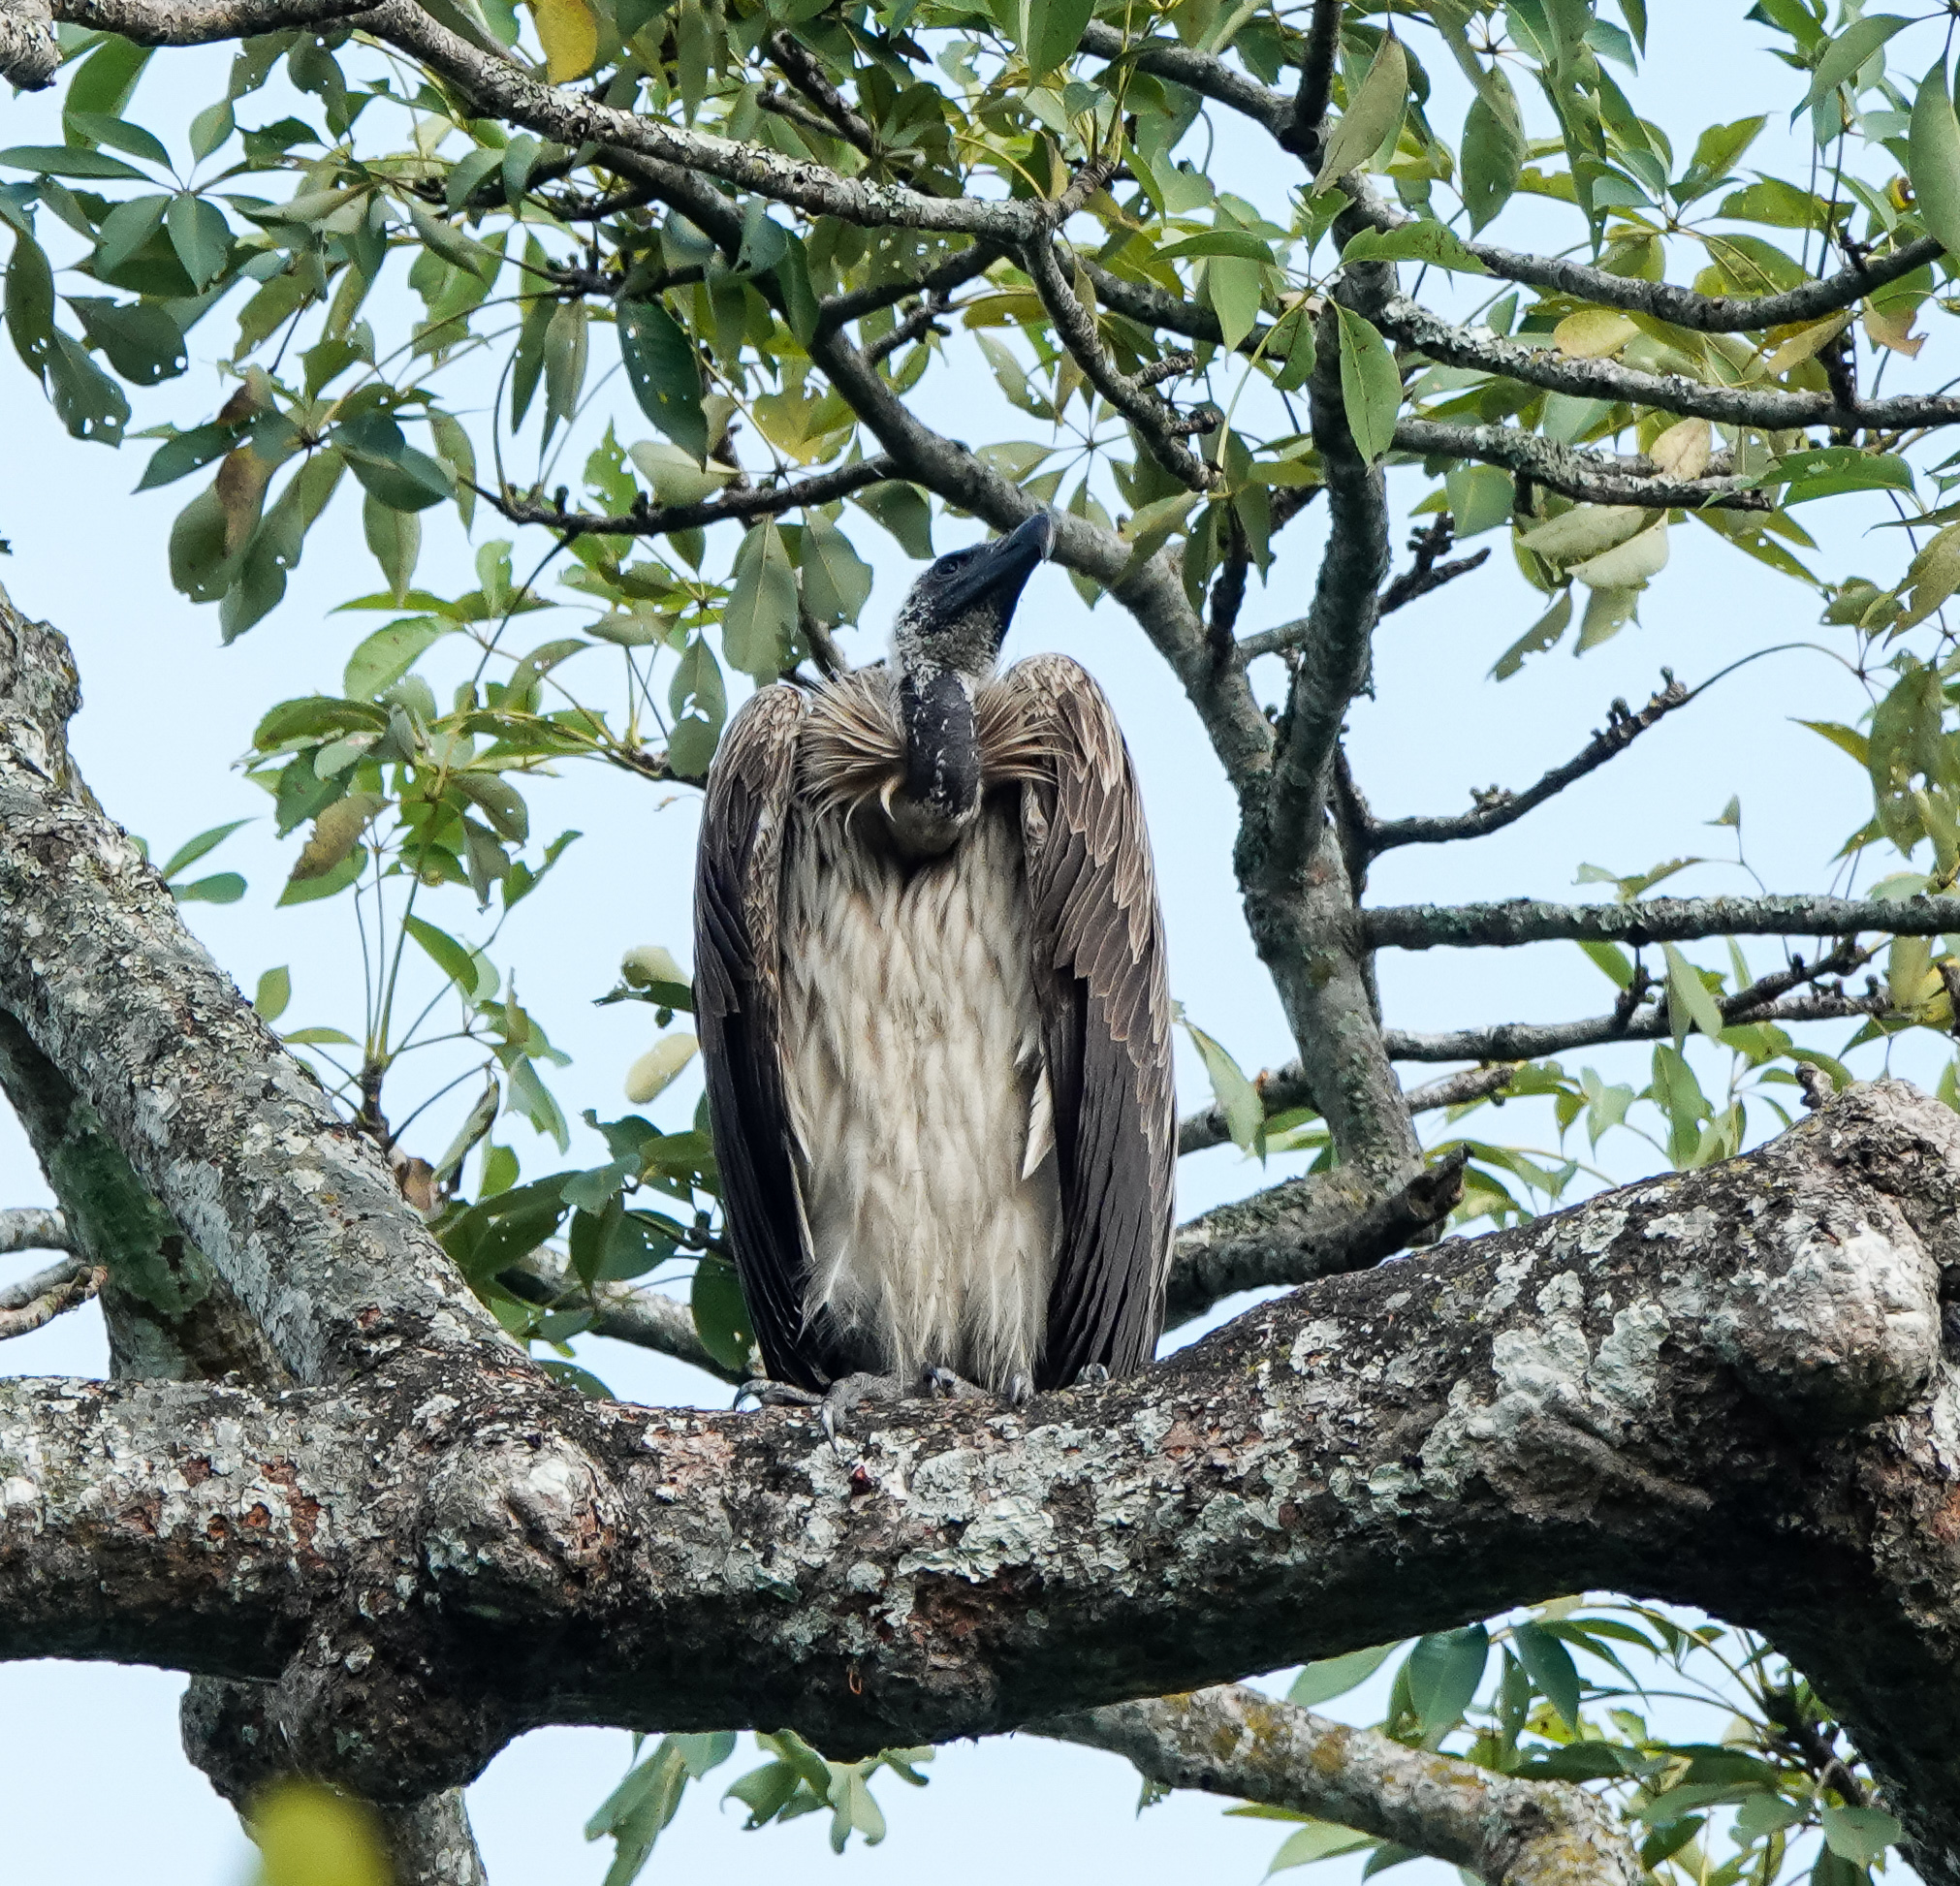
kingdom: Animalia
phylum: Chordata
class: Aves
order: Accipitriformes
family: Accipitridae
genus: Gyps
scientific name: Gyps tenuirostris
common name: Slender-billed vulture
